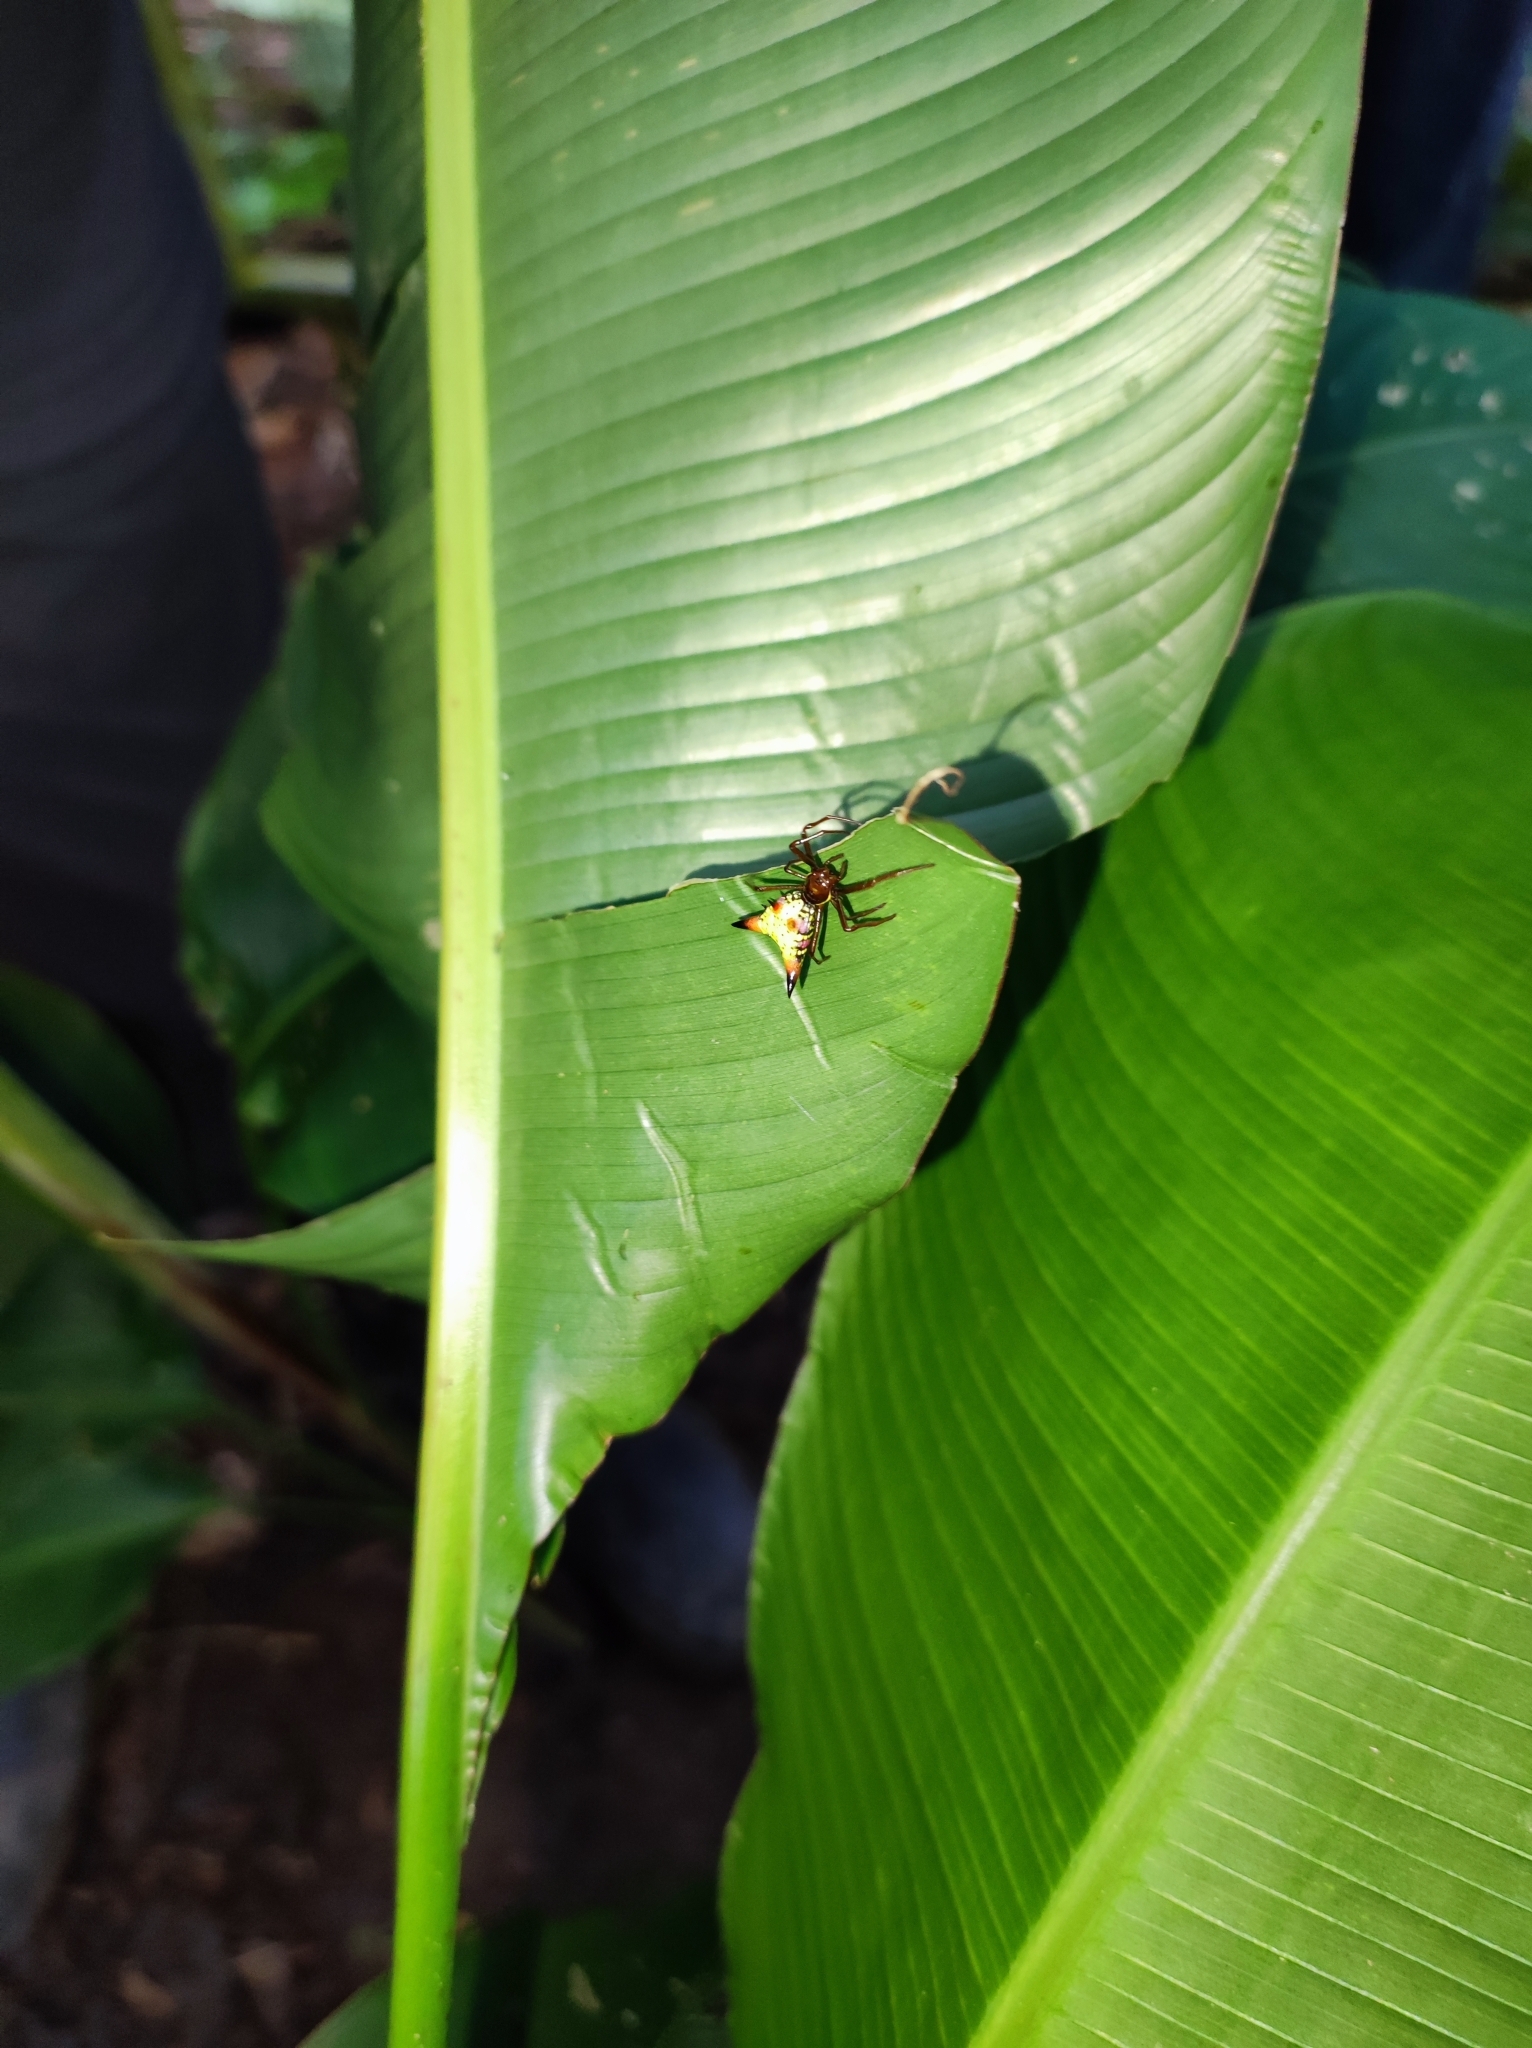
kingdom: Animalia
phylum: Arthropoda
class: Arachnida
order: Araneae
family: Araneidae
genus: Micrathena
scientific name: Micrathena sagittata
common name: Orb weavers
